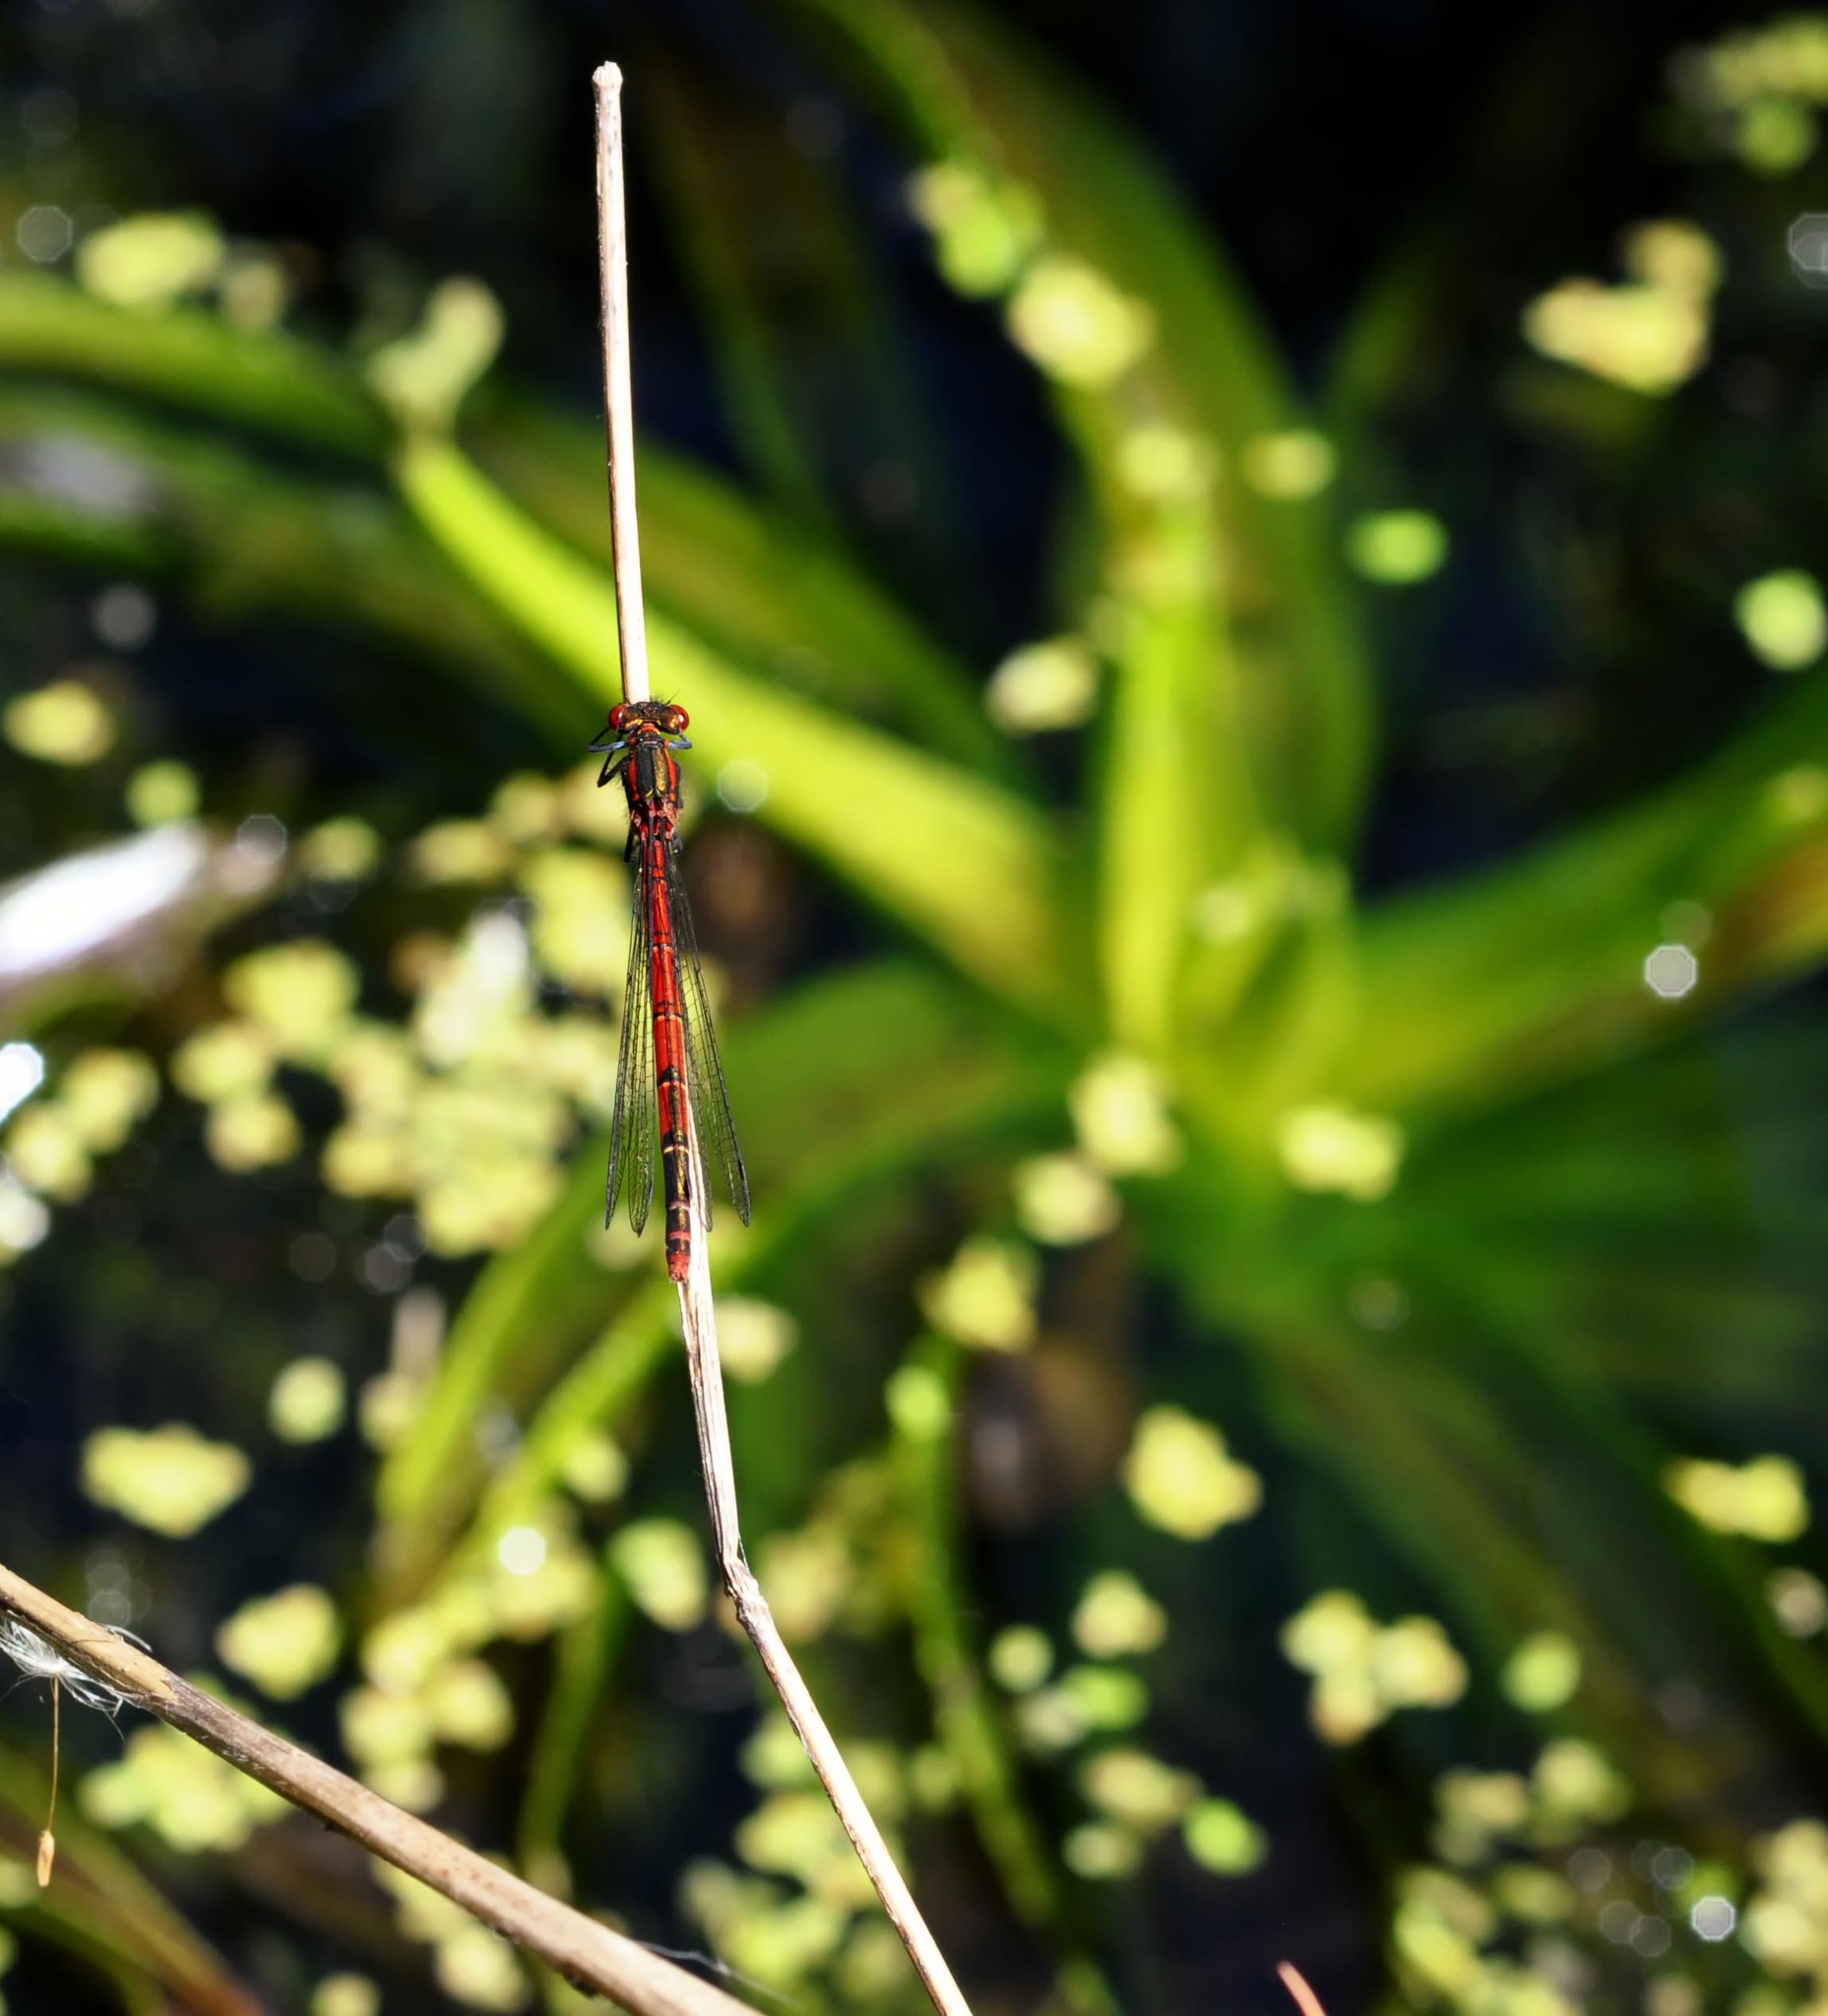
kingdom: Animalia
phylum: Arthropoda
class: Insecta
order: Odonata
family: Coenagrionidae
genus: Pyrrhosoma
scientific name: Pyrrhosoma nymphula
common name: Large red damsel
